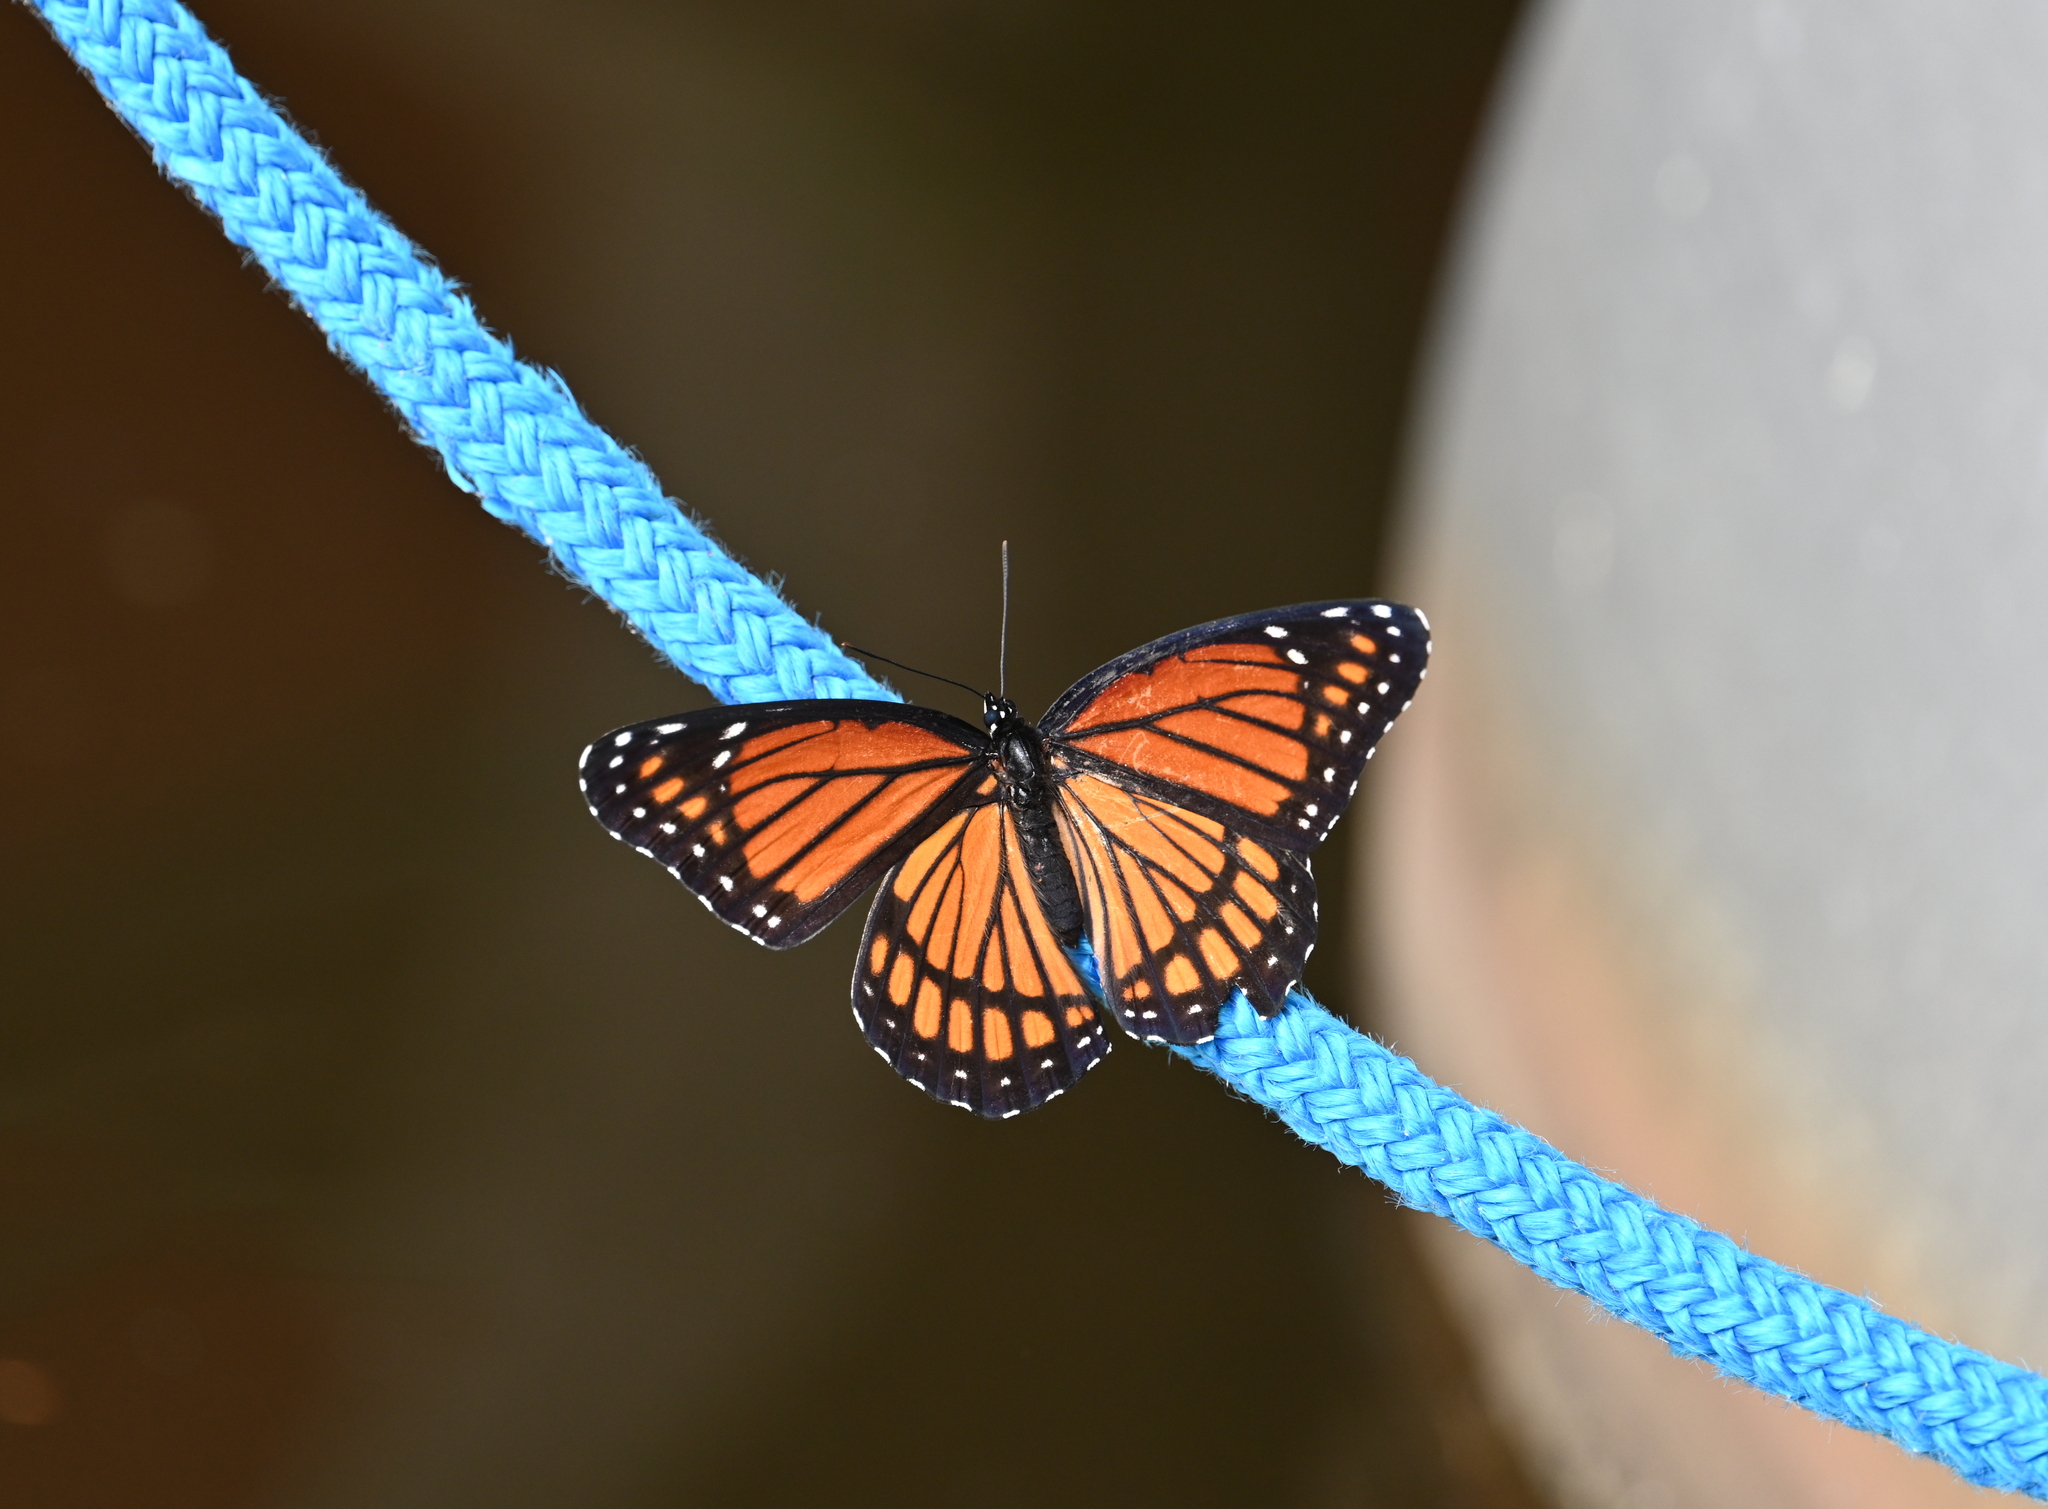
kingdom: Animalia
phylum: Arthropoda
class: Insecta
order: Lepidoptera
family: Nymphalidae
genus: Limenitis
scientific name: Limenitis archippus
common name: Viceroy
